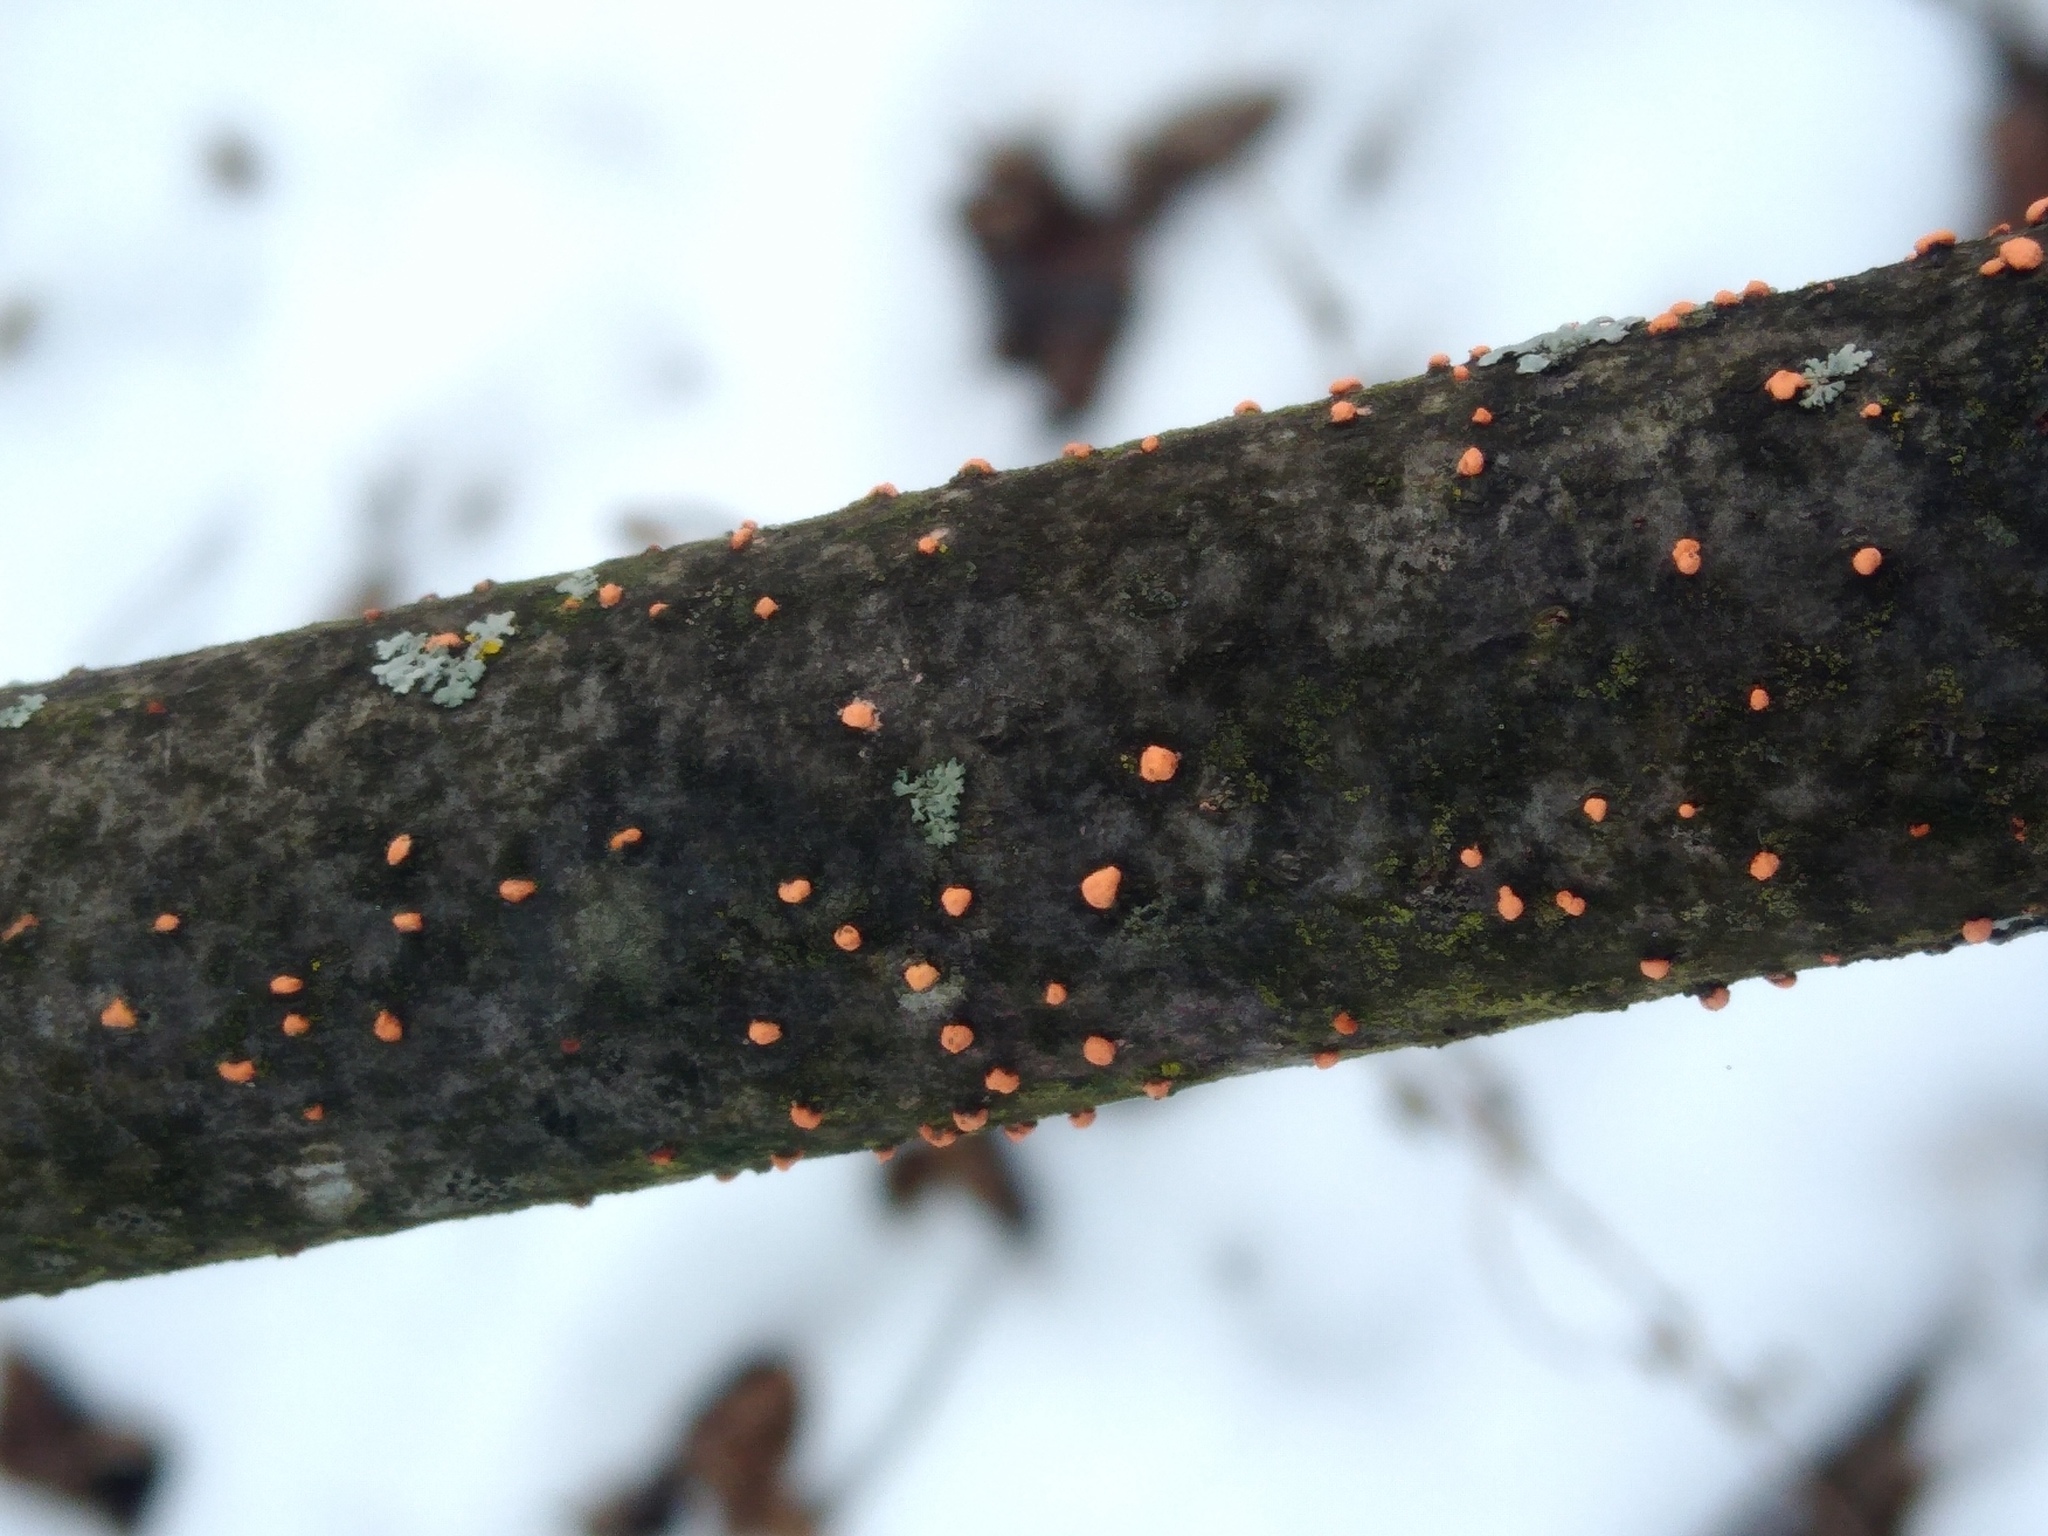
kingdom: Fungi
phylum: Ascomycota
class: Sordariomycetes
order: Hypocreales
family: Nectriaceae
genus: Nectria
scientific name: Nectria cinnabarina
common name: Coral spot
